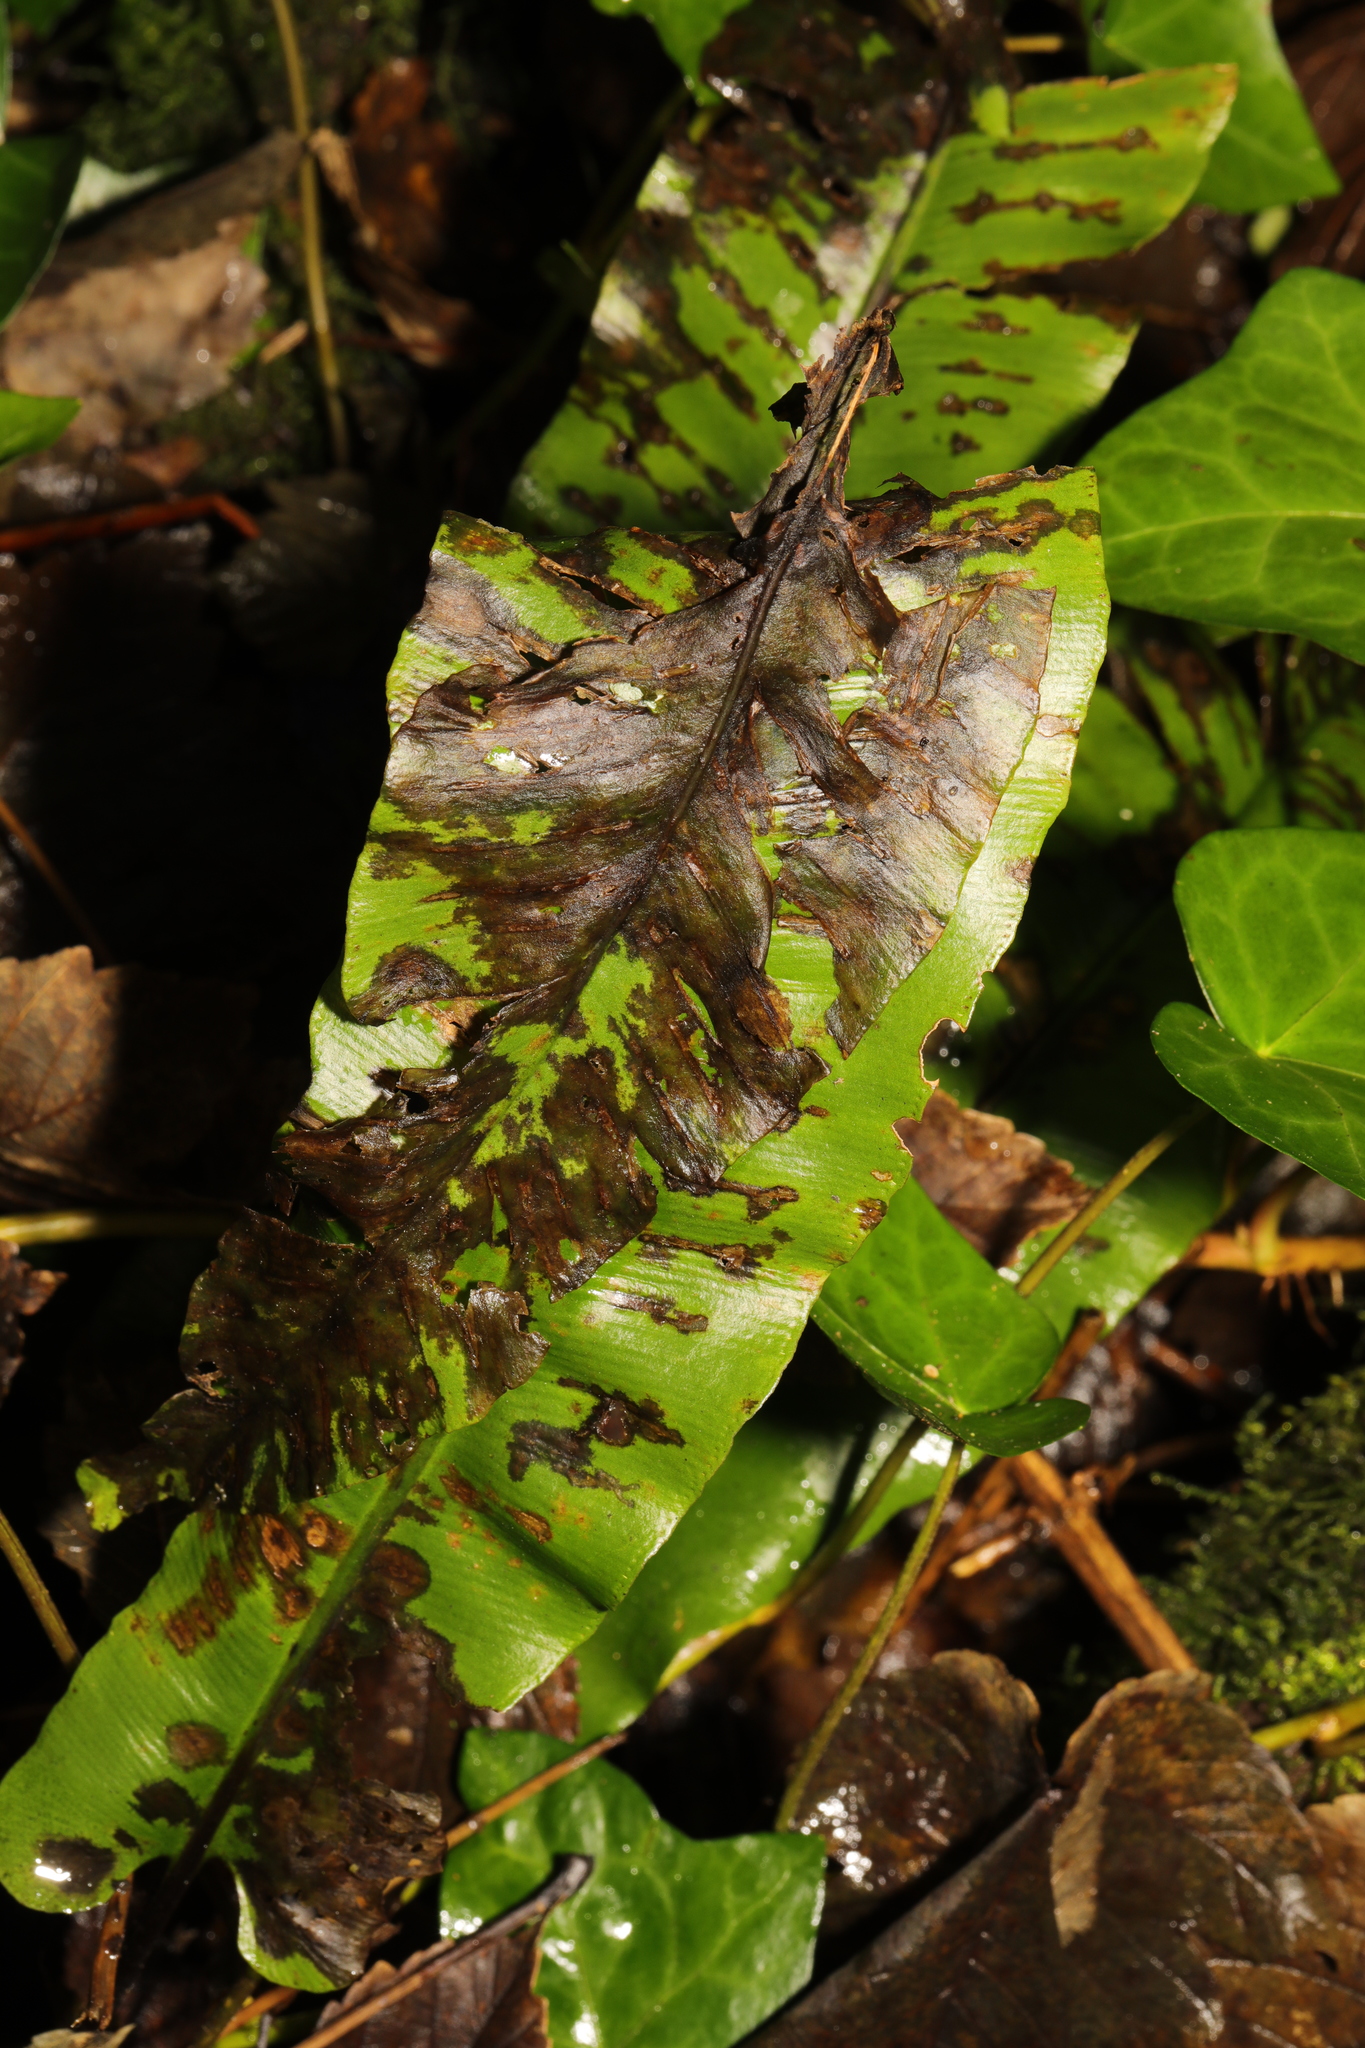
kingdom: Plantae
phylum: Tracheophyta
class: Polypodiopsida
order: Polypodiales
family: Aspleniaceae
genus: Asplenium
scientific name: Asplenium scolopendrium
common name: Hart's-tongue fern
